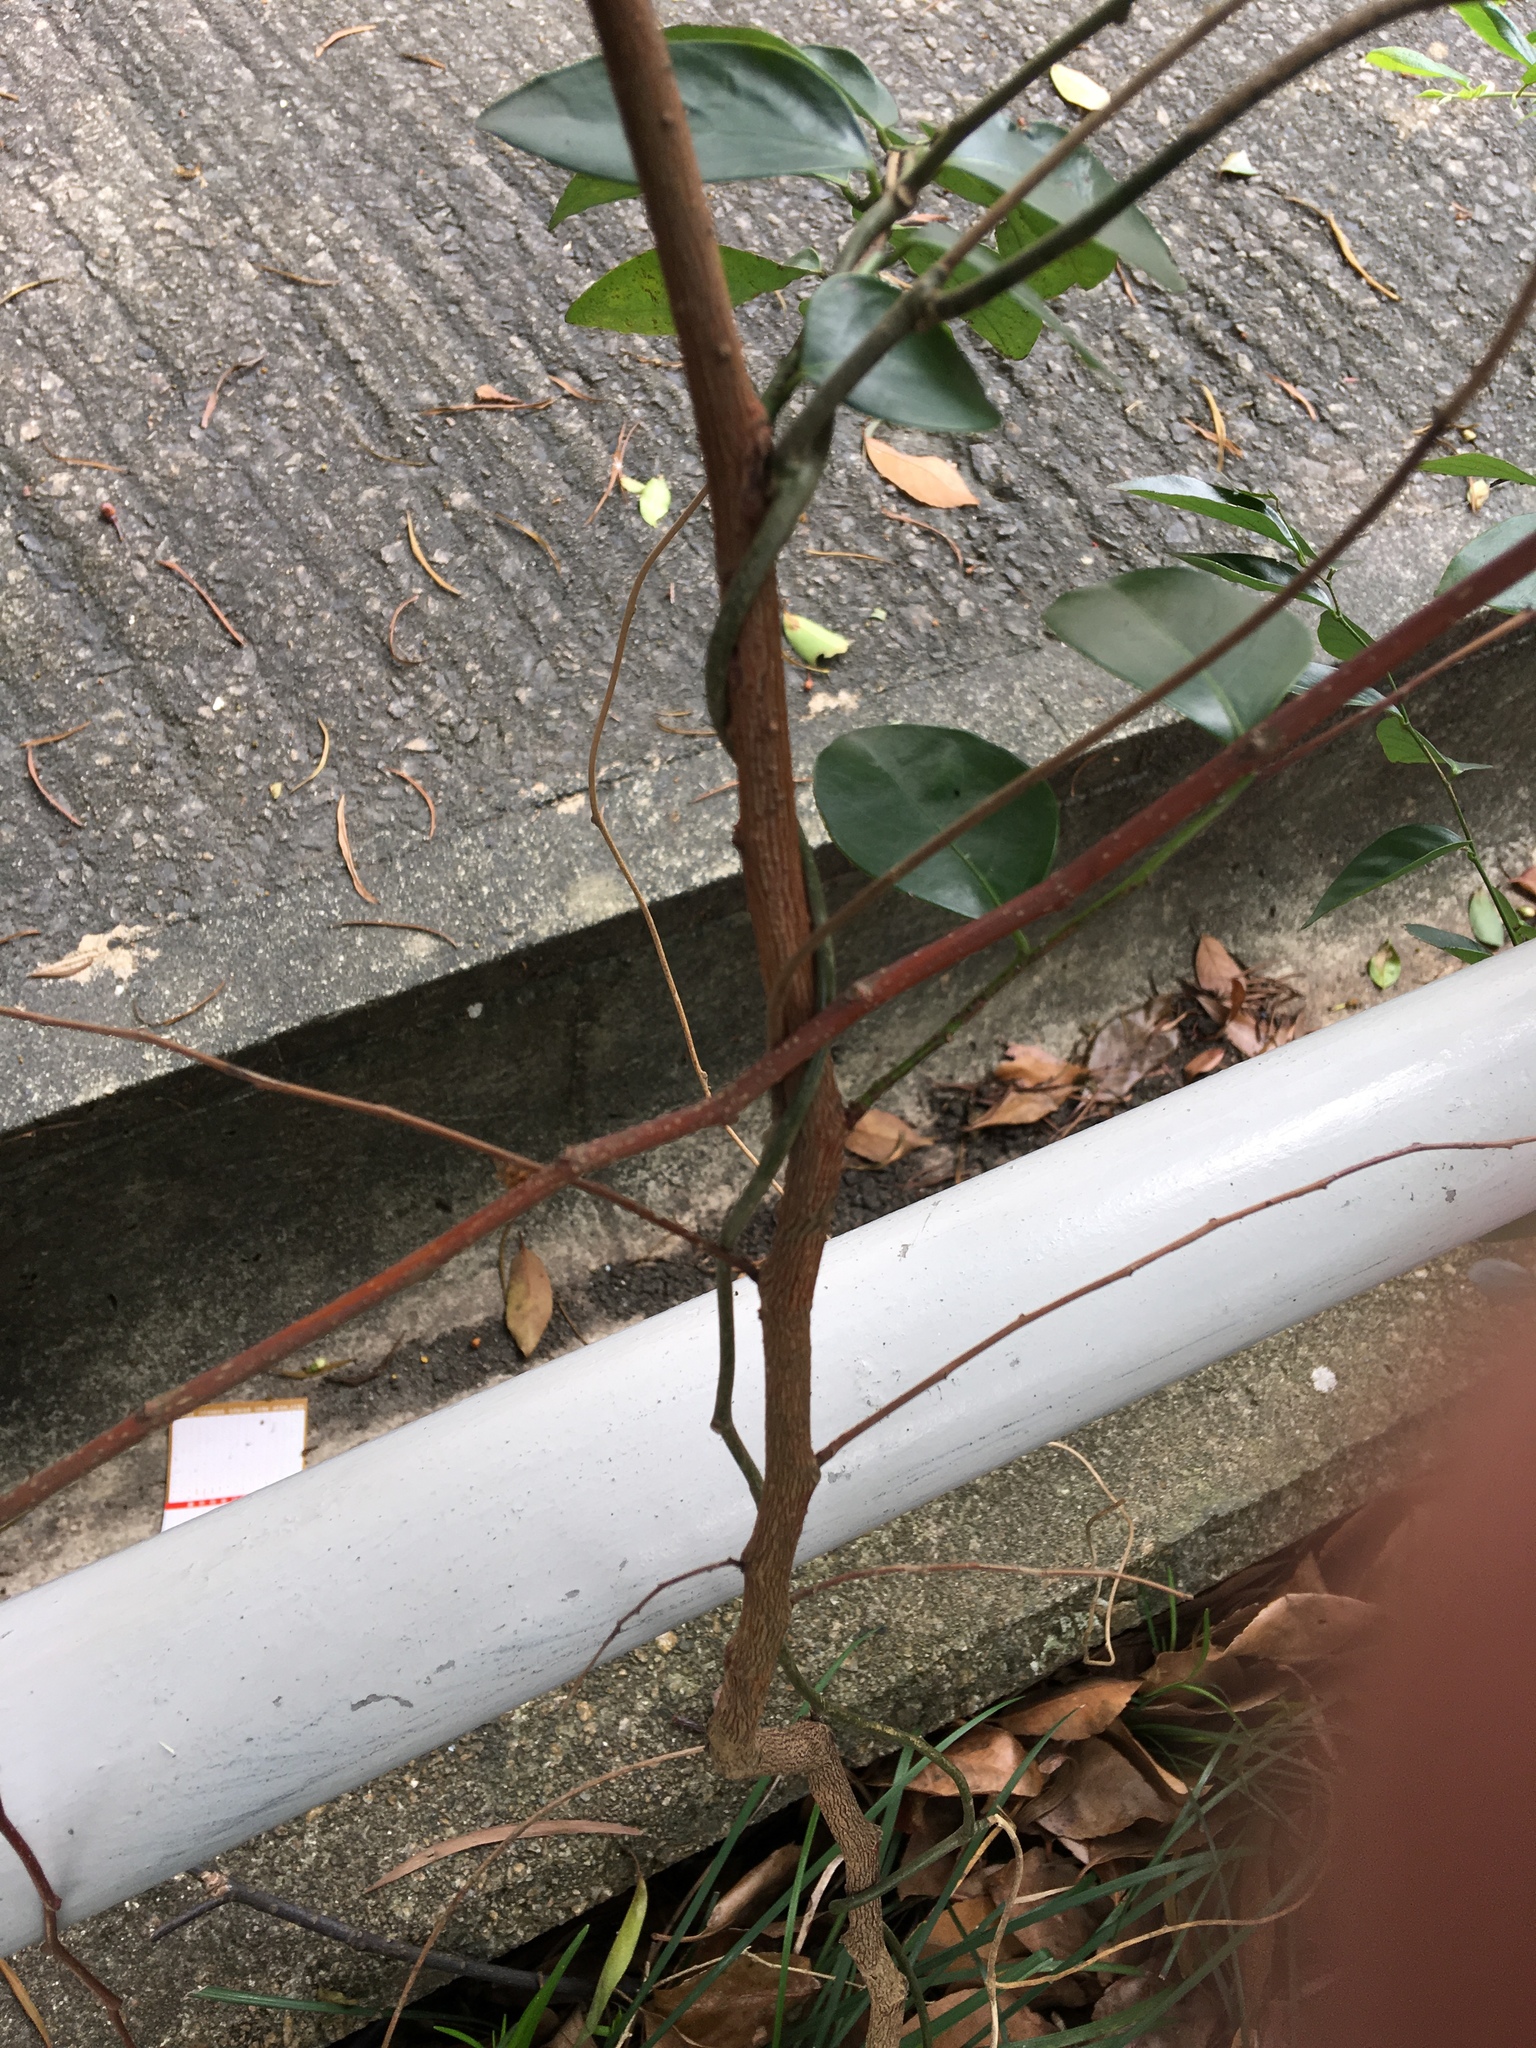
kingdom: Plantae
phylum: Tracheophyta
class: Magnoliopsida
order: Malpighiales
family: Phyllanthaceae
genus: Breynia
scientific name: Breynia fruticosa
